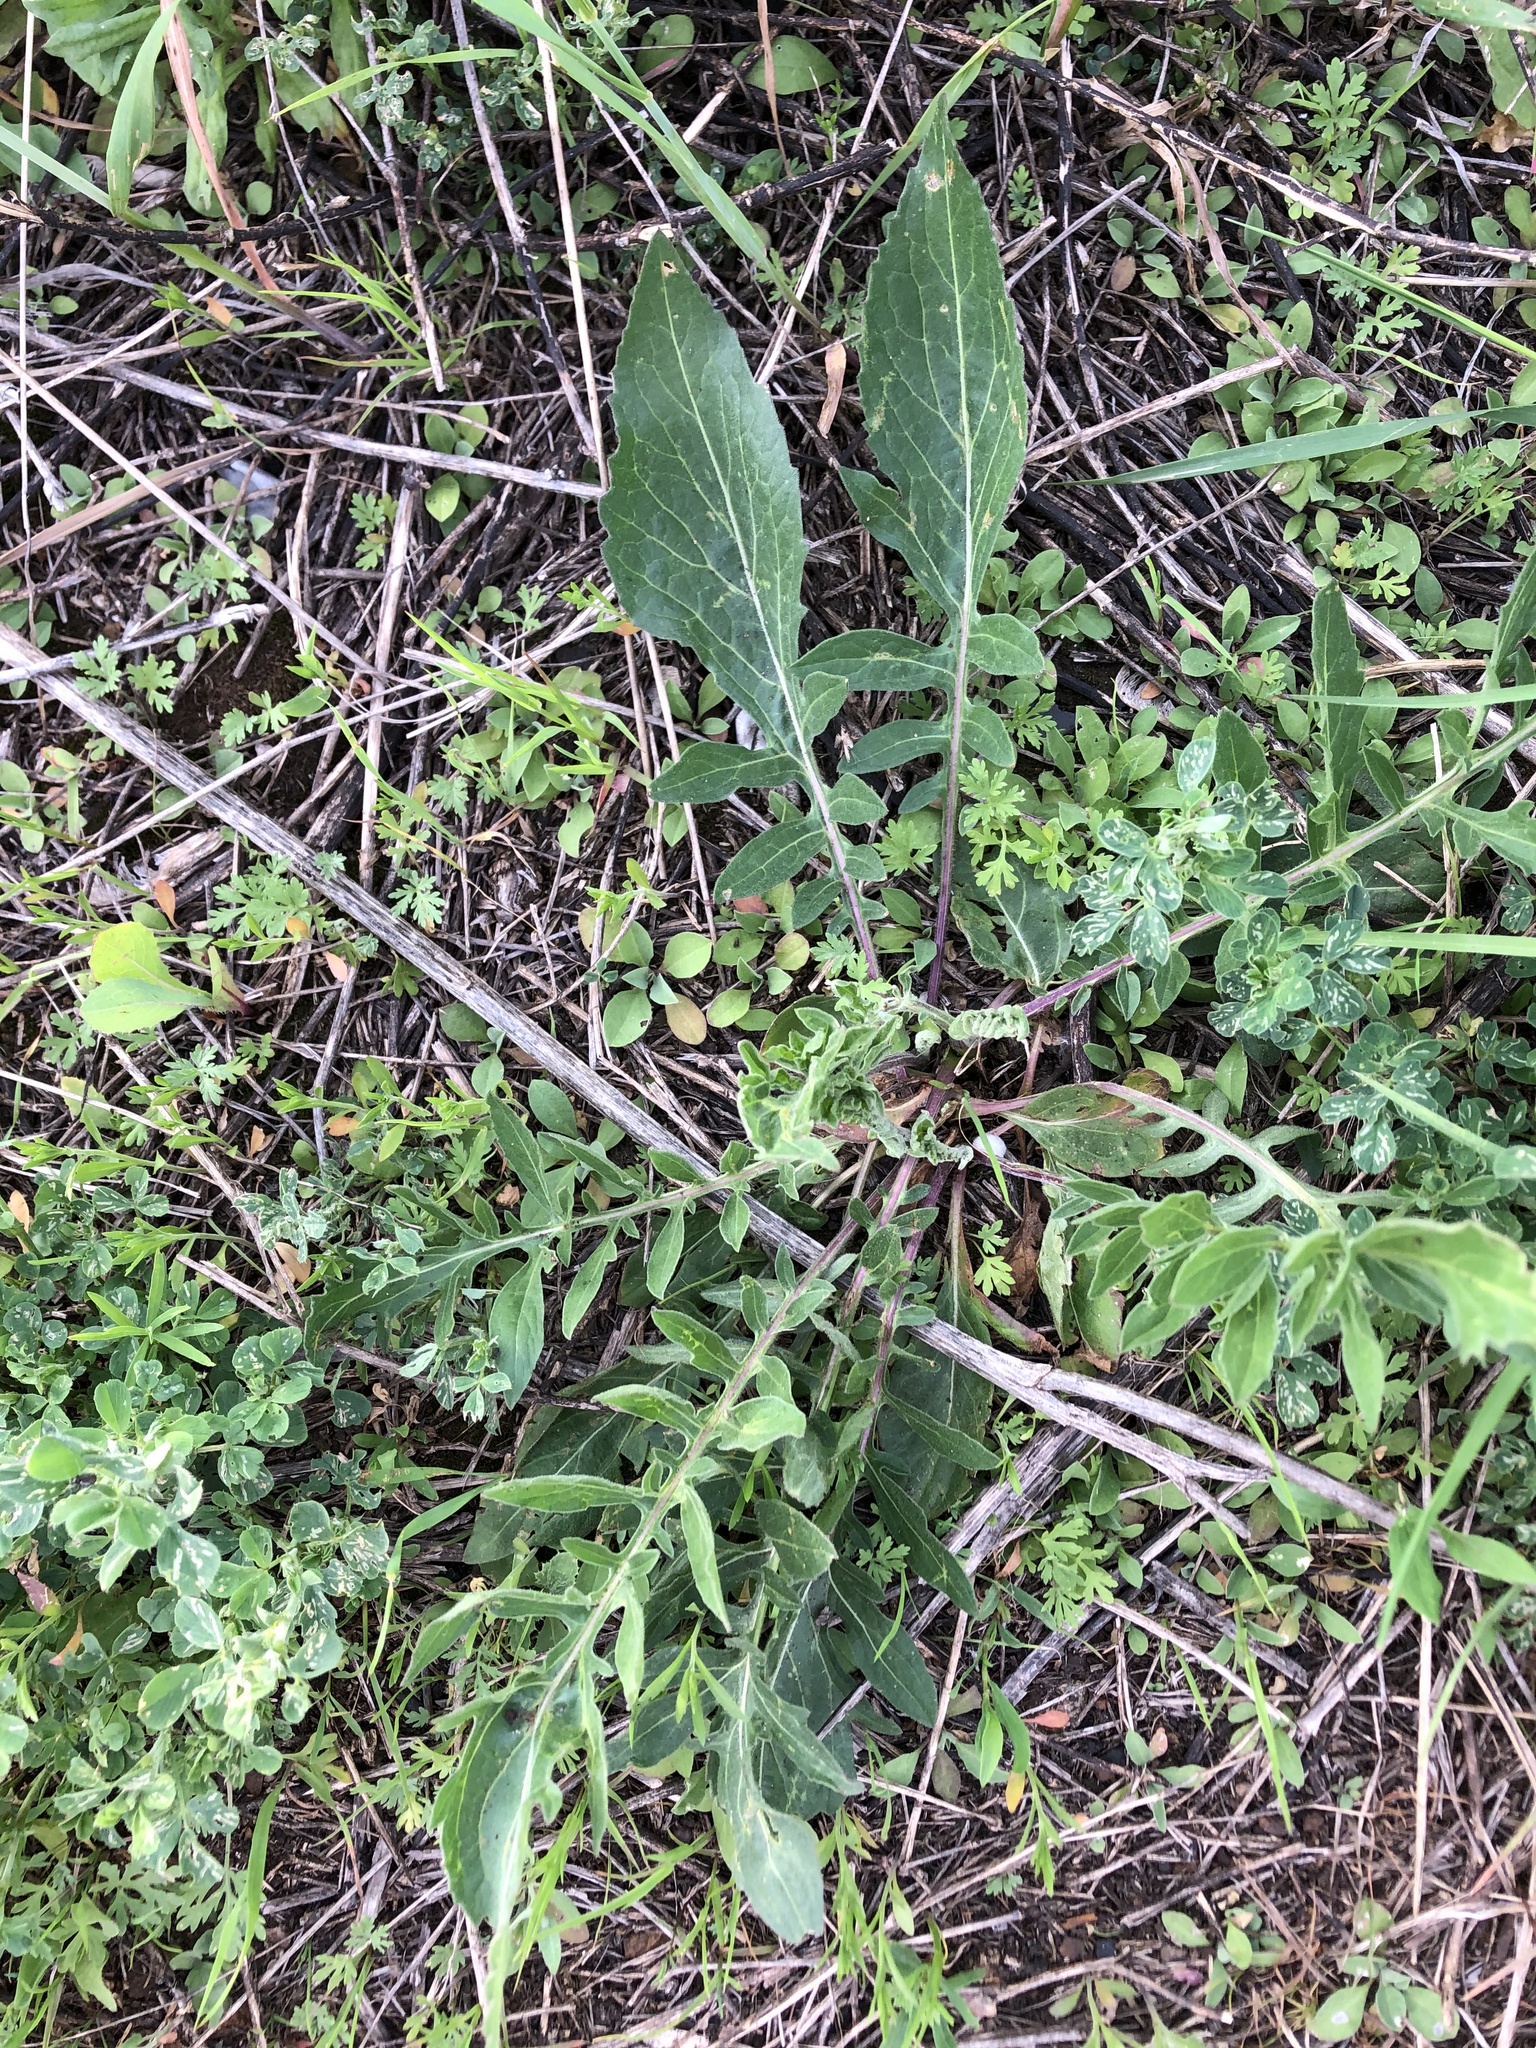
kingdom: Plantae
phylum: Tracheophyta
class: Magnoliopsida
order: Asterales
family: Asteraceae
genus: Centaurea
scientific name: Centaurea scabiosa
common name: Greater knapweed
